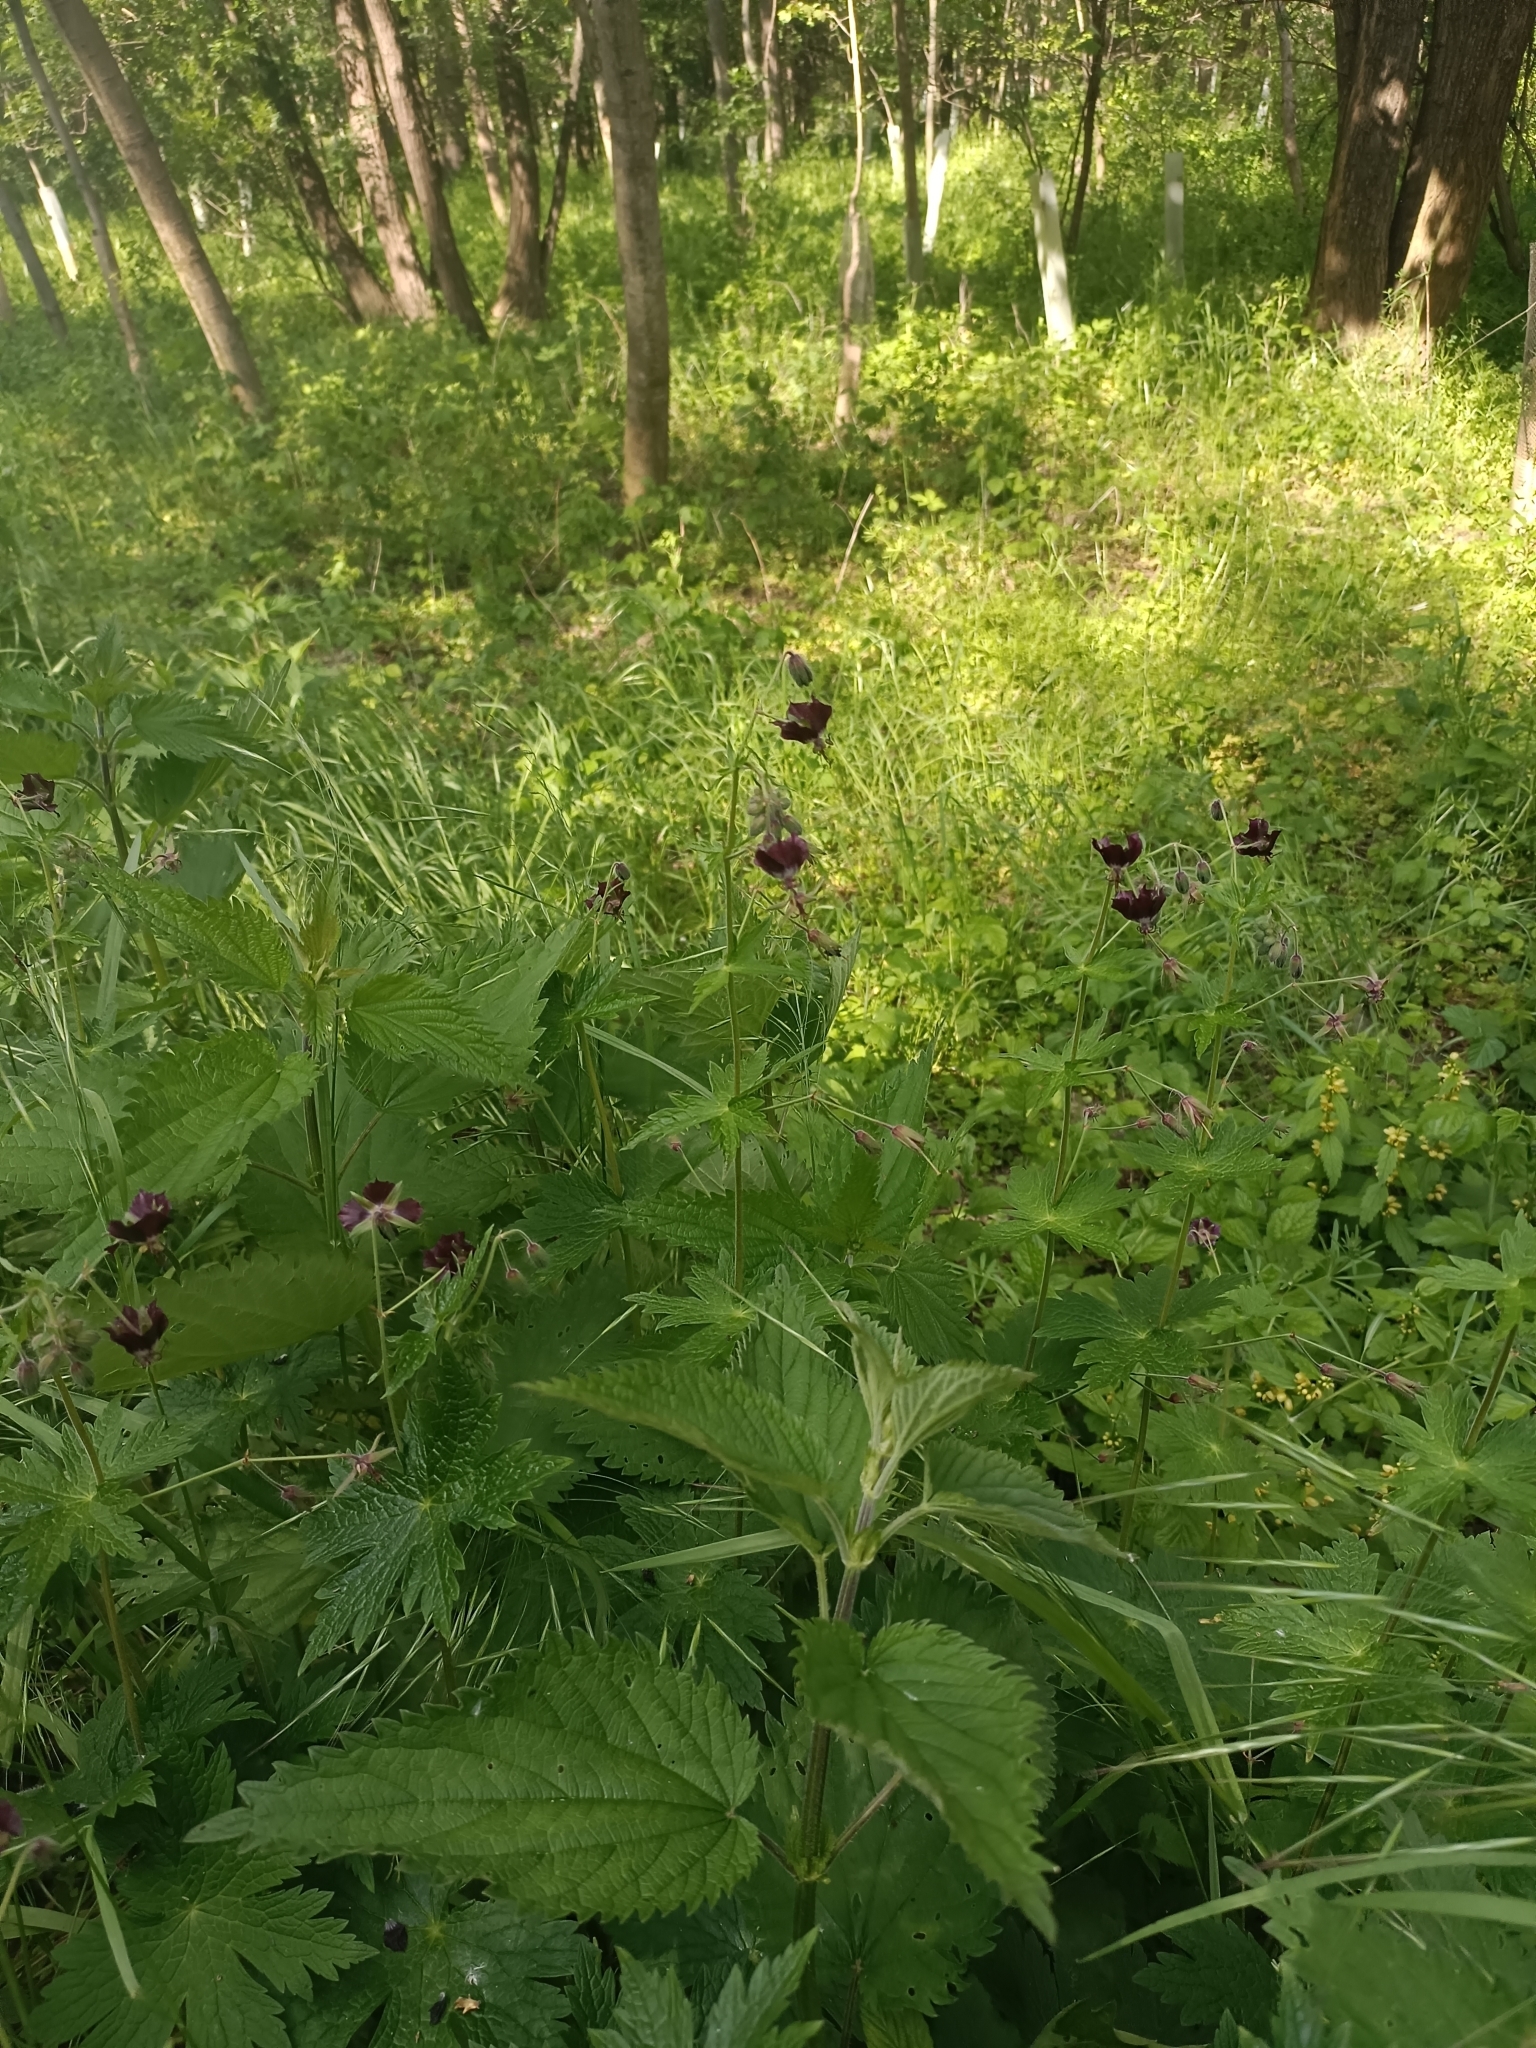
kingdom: Plantae
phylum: Tracheophyta
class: Magnoliopsida
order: Geraniales
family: Geraniaceae
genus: Geranium
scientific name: Geranium phaeum
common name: Dusky crane's-bill
